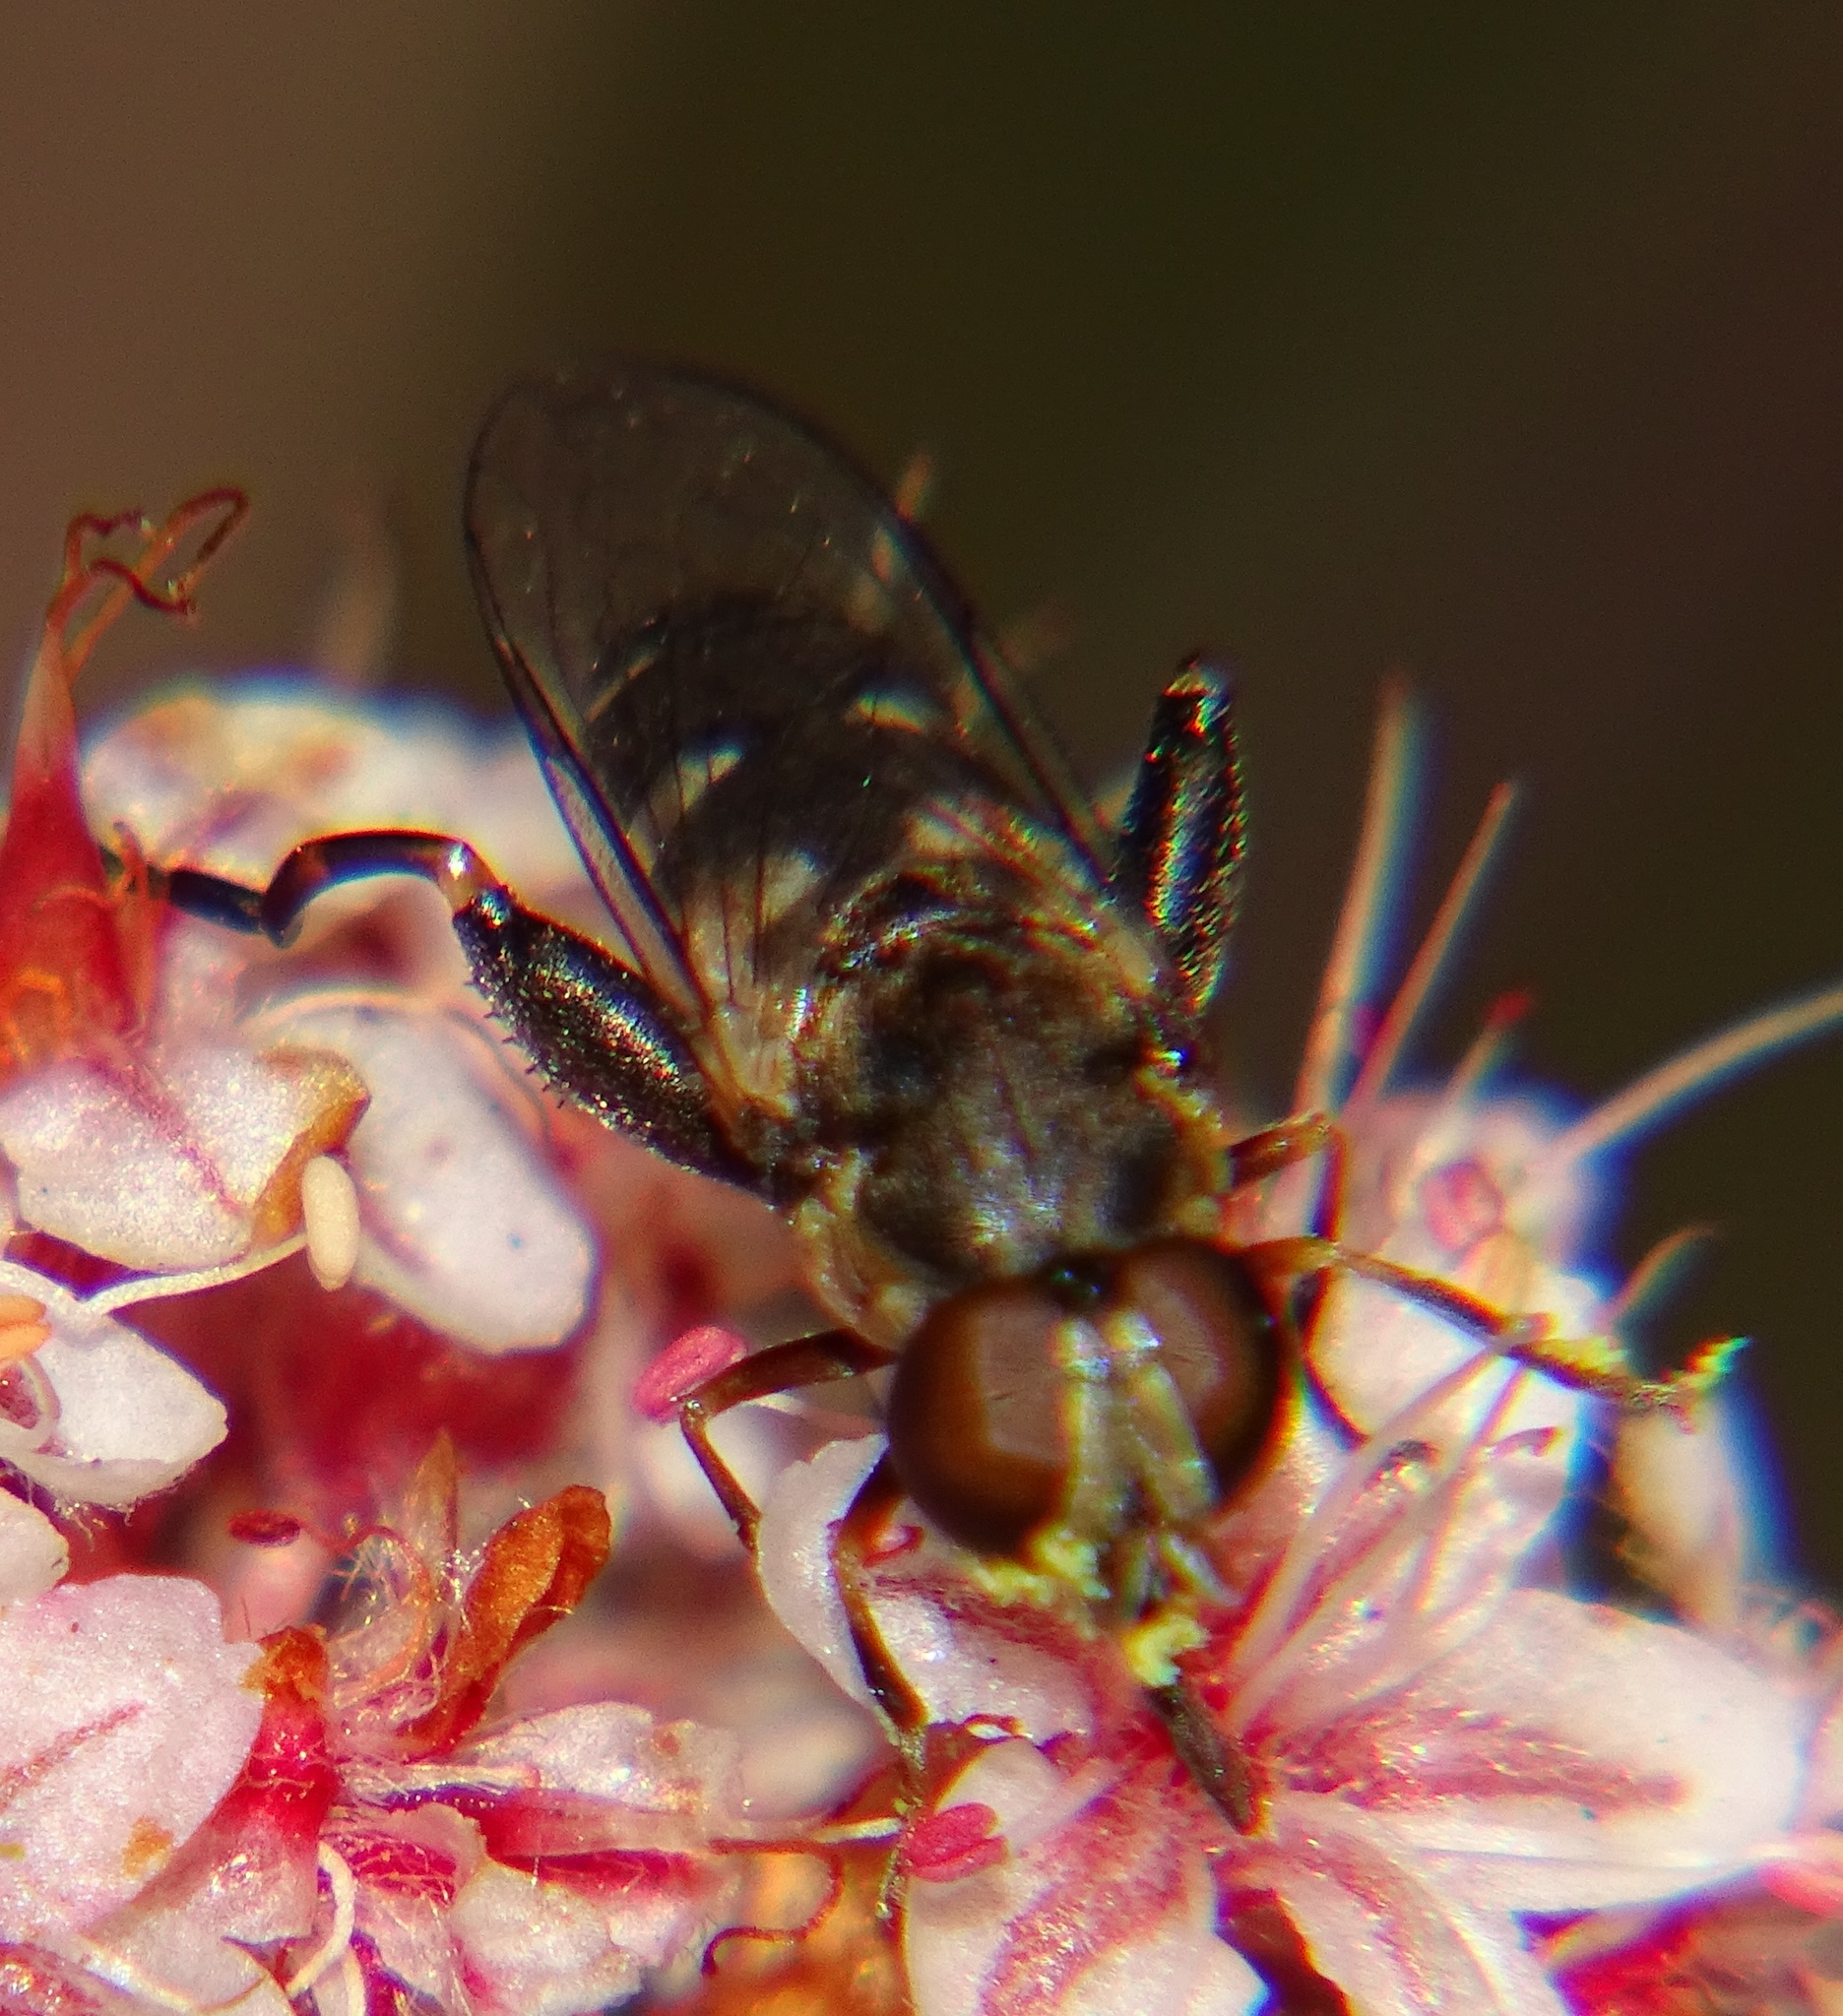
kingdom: Animalia
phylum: Arthropoda
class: Insecta
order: Diptera
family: Syrphidae
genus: Syritta
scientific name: Syritta pipiens
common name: Hover fly
